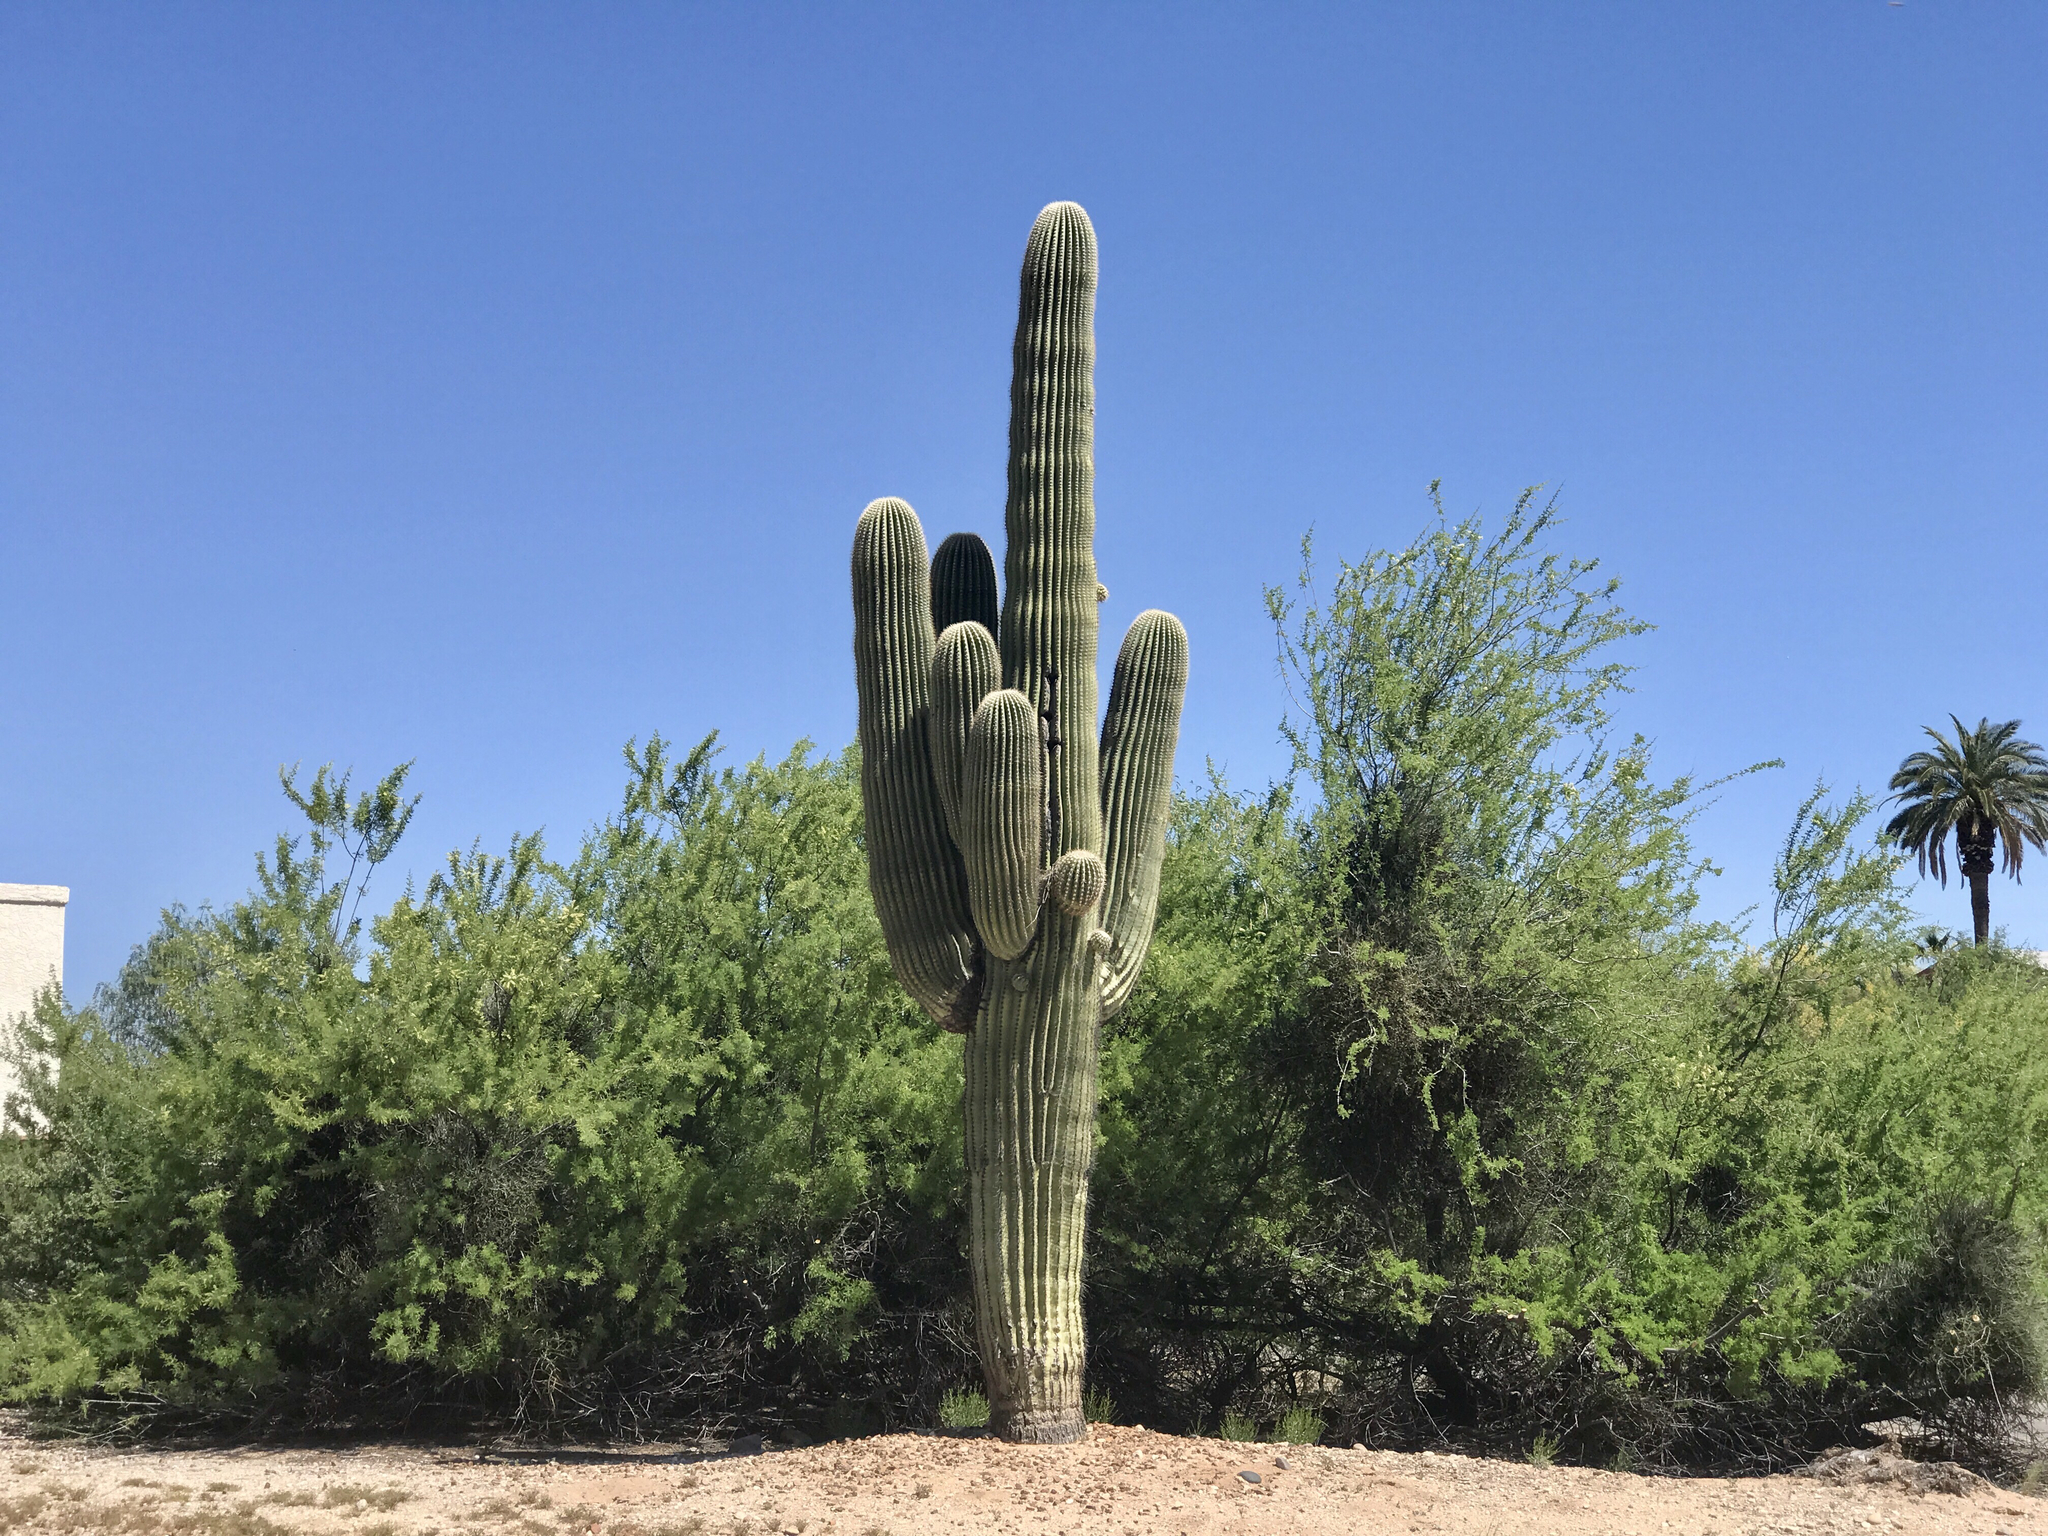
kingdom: Plantae
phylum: Tracheophyta
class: Magnoliopsida
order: Caryophyllales
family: Cactaceae
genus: Carnegiea
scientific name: Carnegiea gigantea
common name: Saguaro
